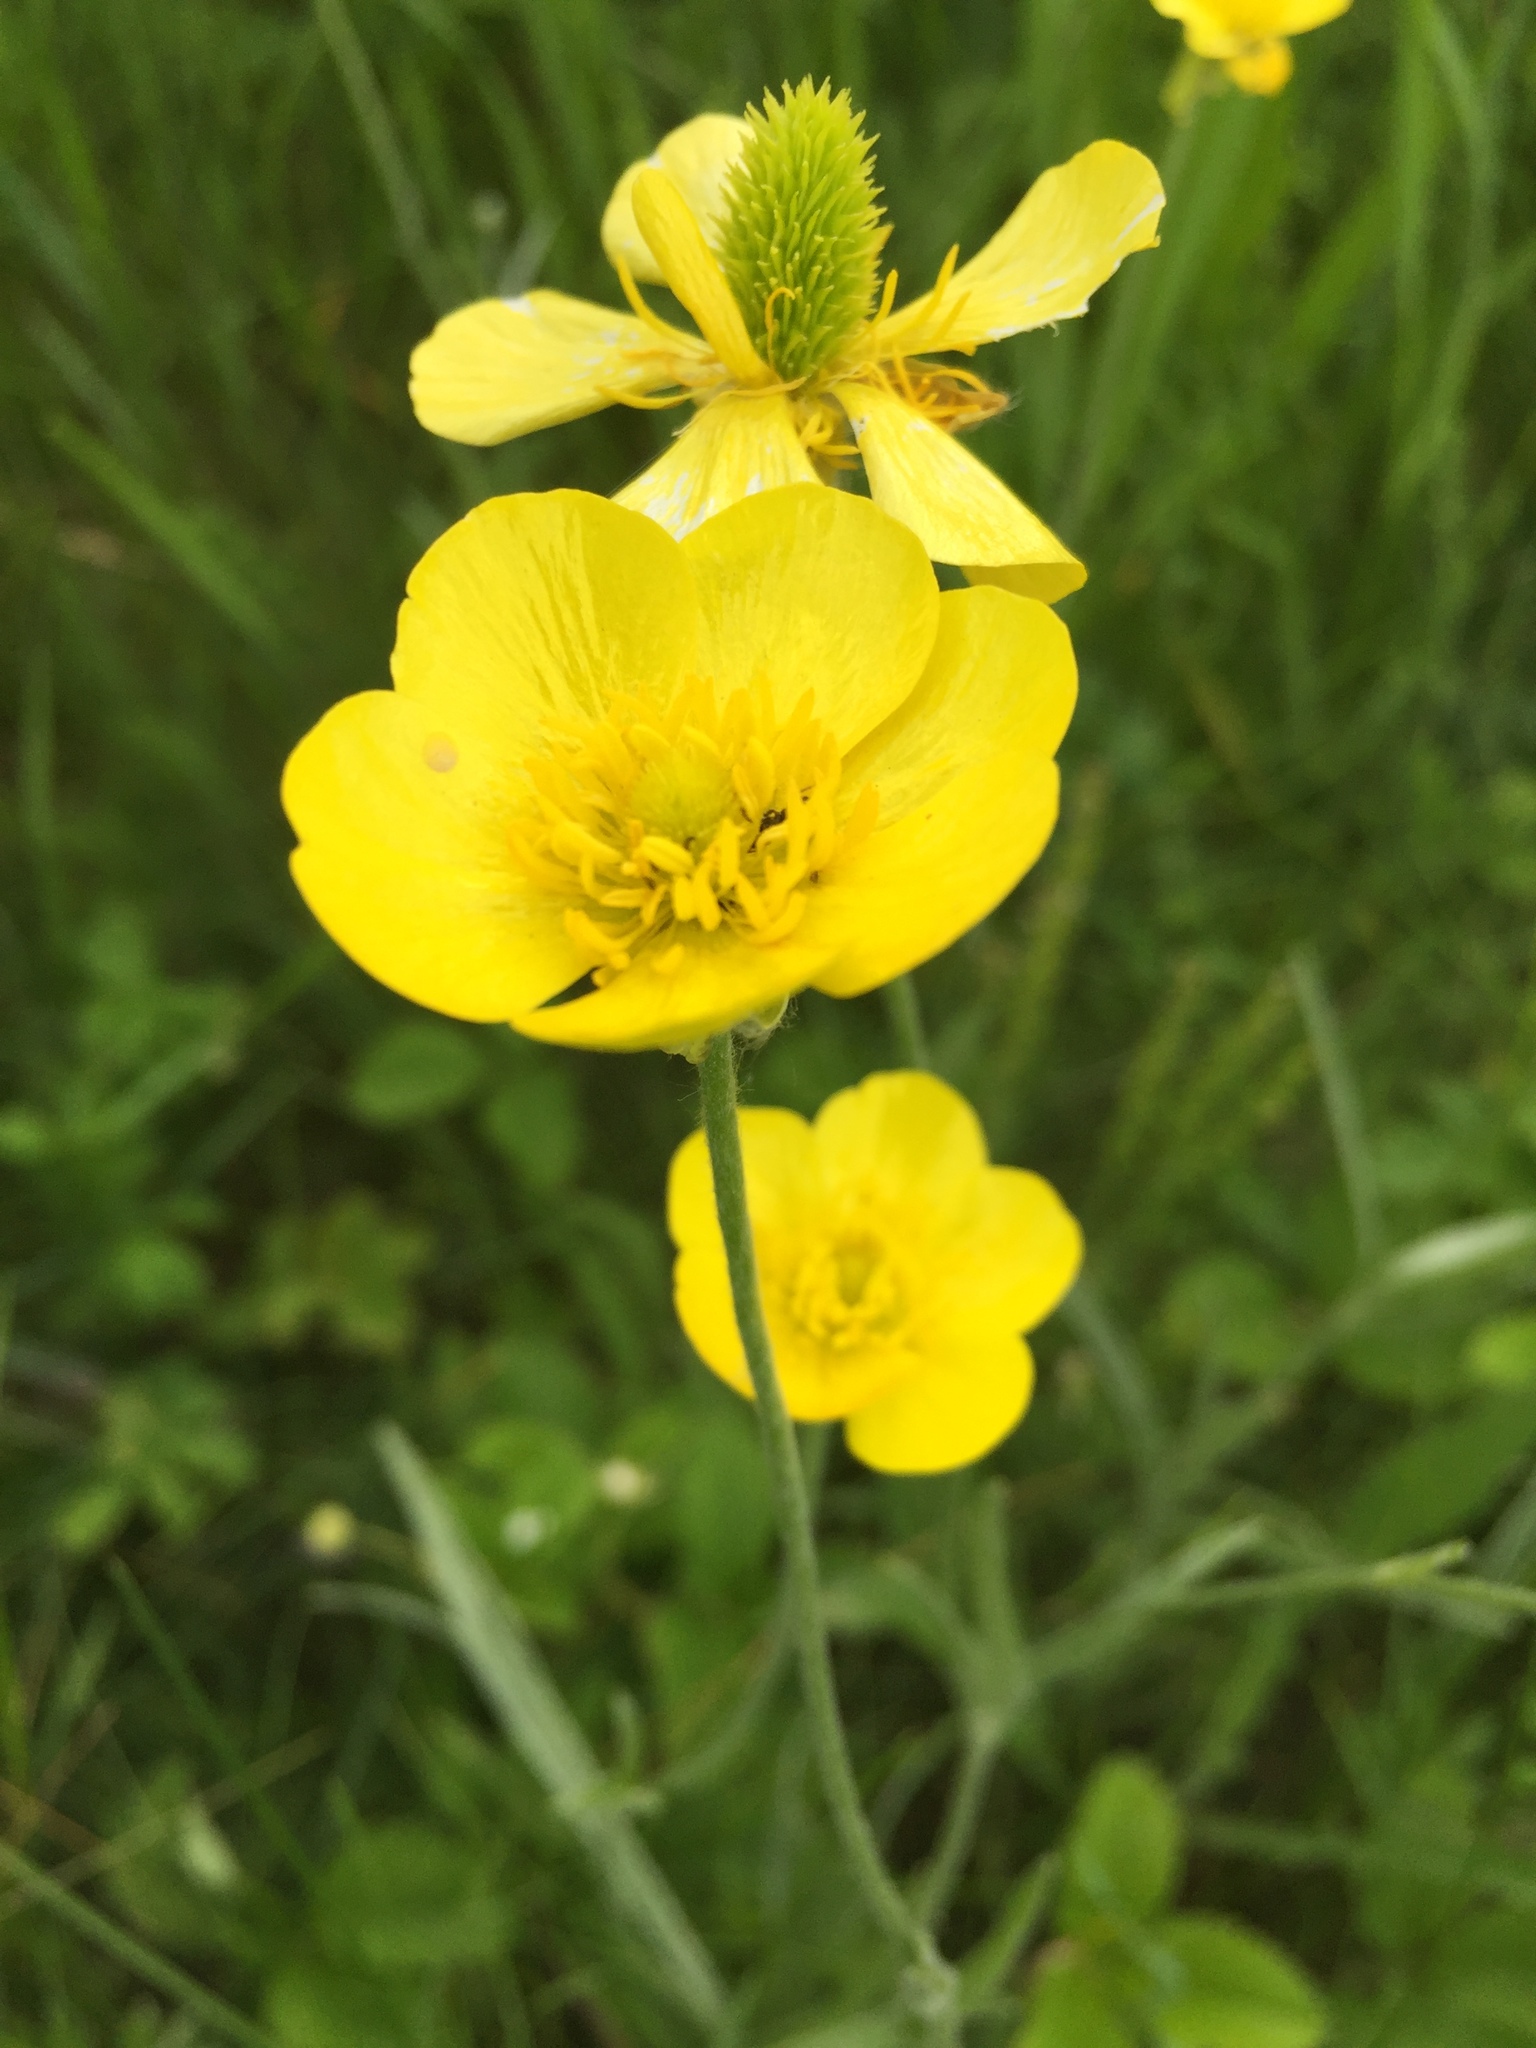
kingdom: Plantae
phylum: Tracheophyta
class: Magnoliopsida
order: Ranunculales
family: Ranunculaceae
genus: Ranunculus
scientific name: Ranunculus illyricus
